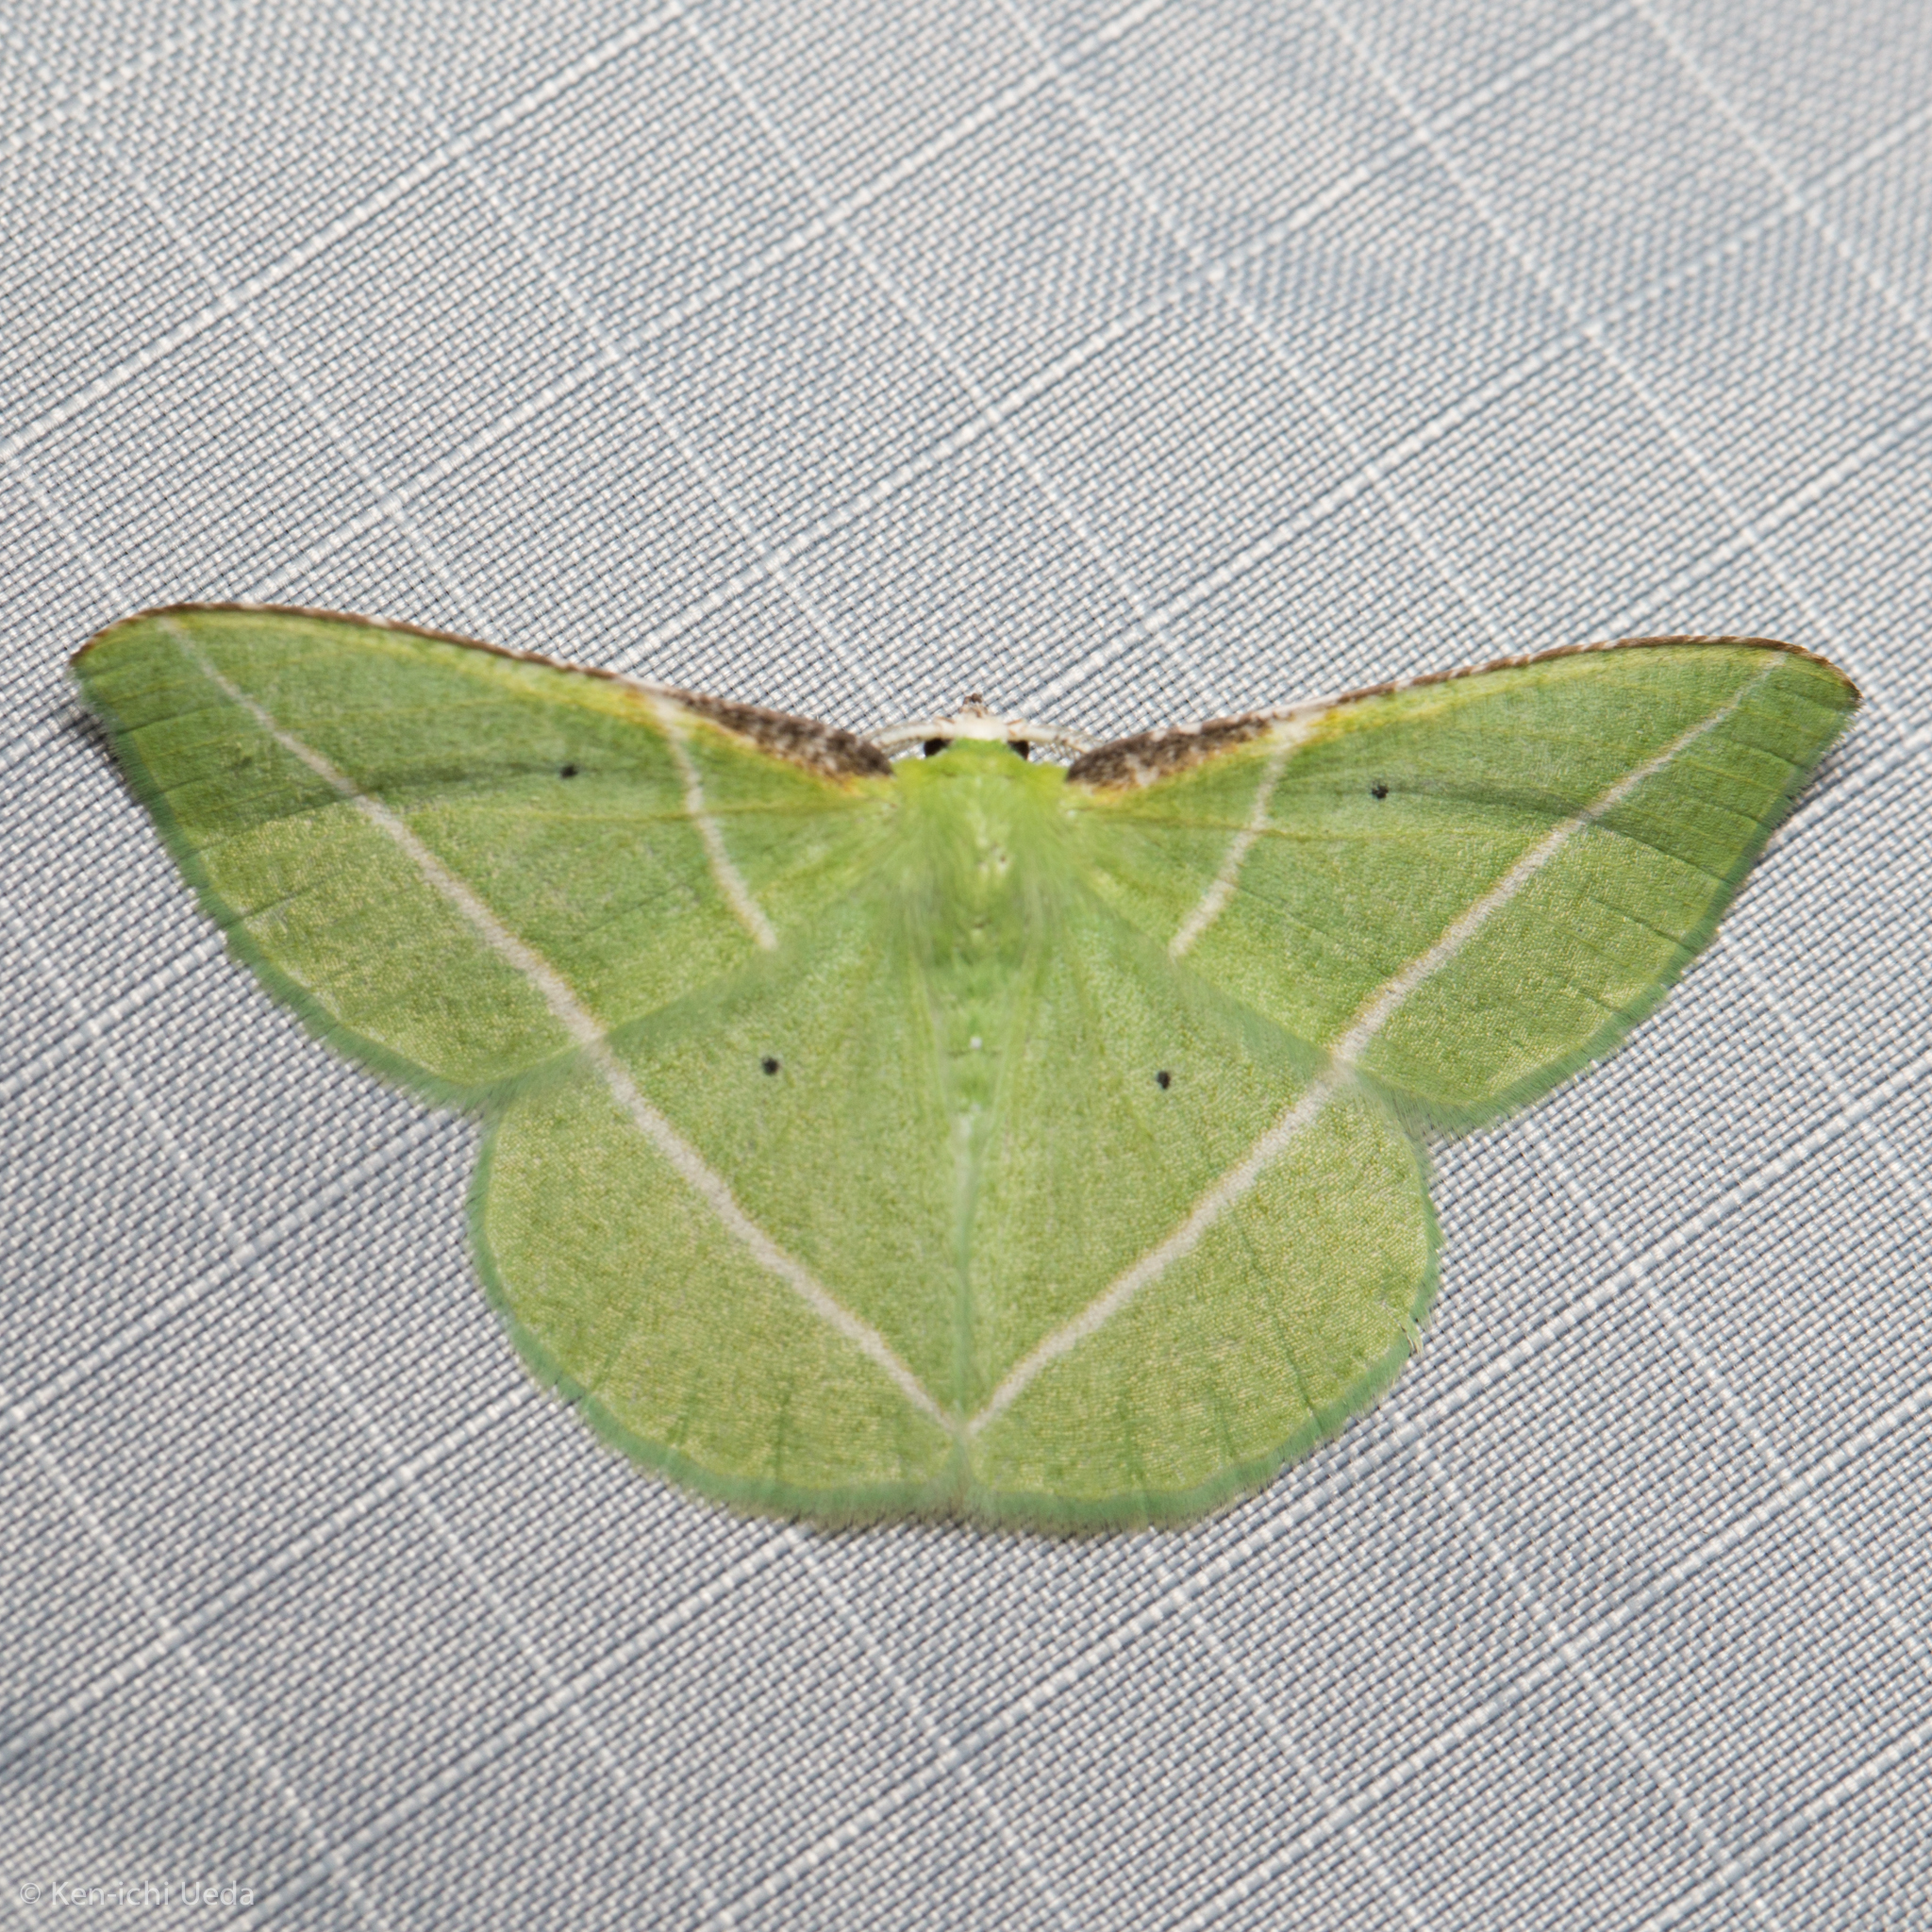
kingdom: Animalia
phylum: Arthropoda
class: Insecta
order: Lepidoptera
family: Geometridae
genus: Dichorda
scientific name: Dichorda illustraria
